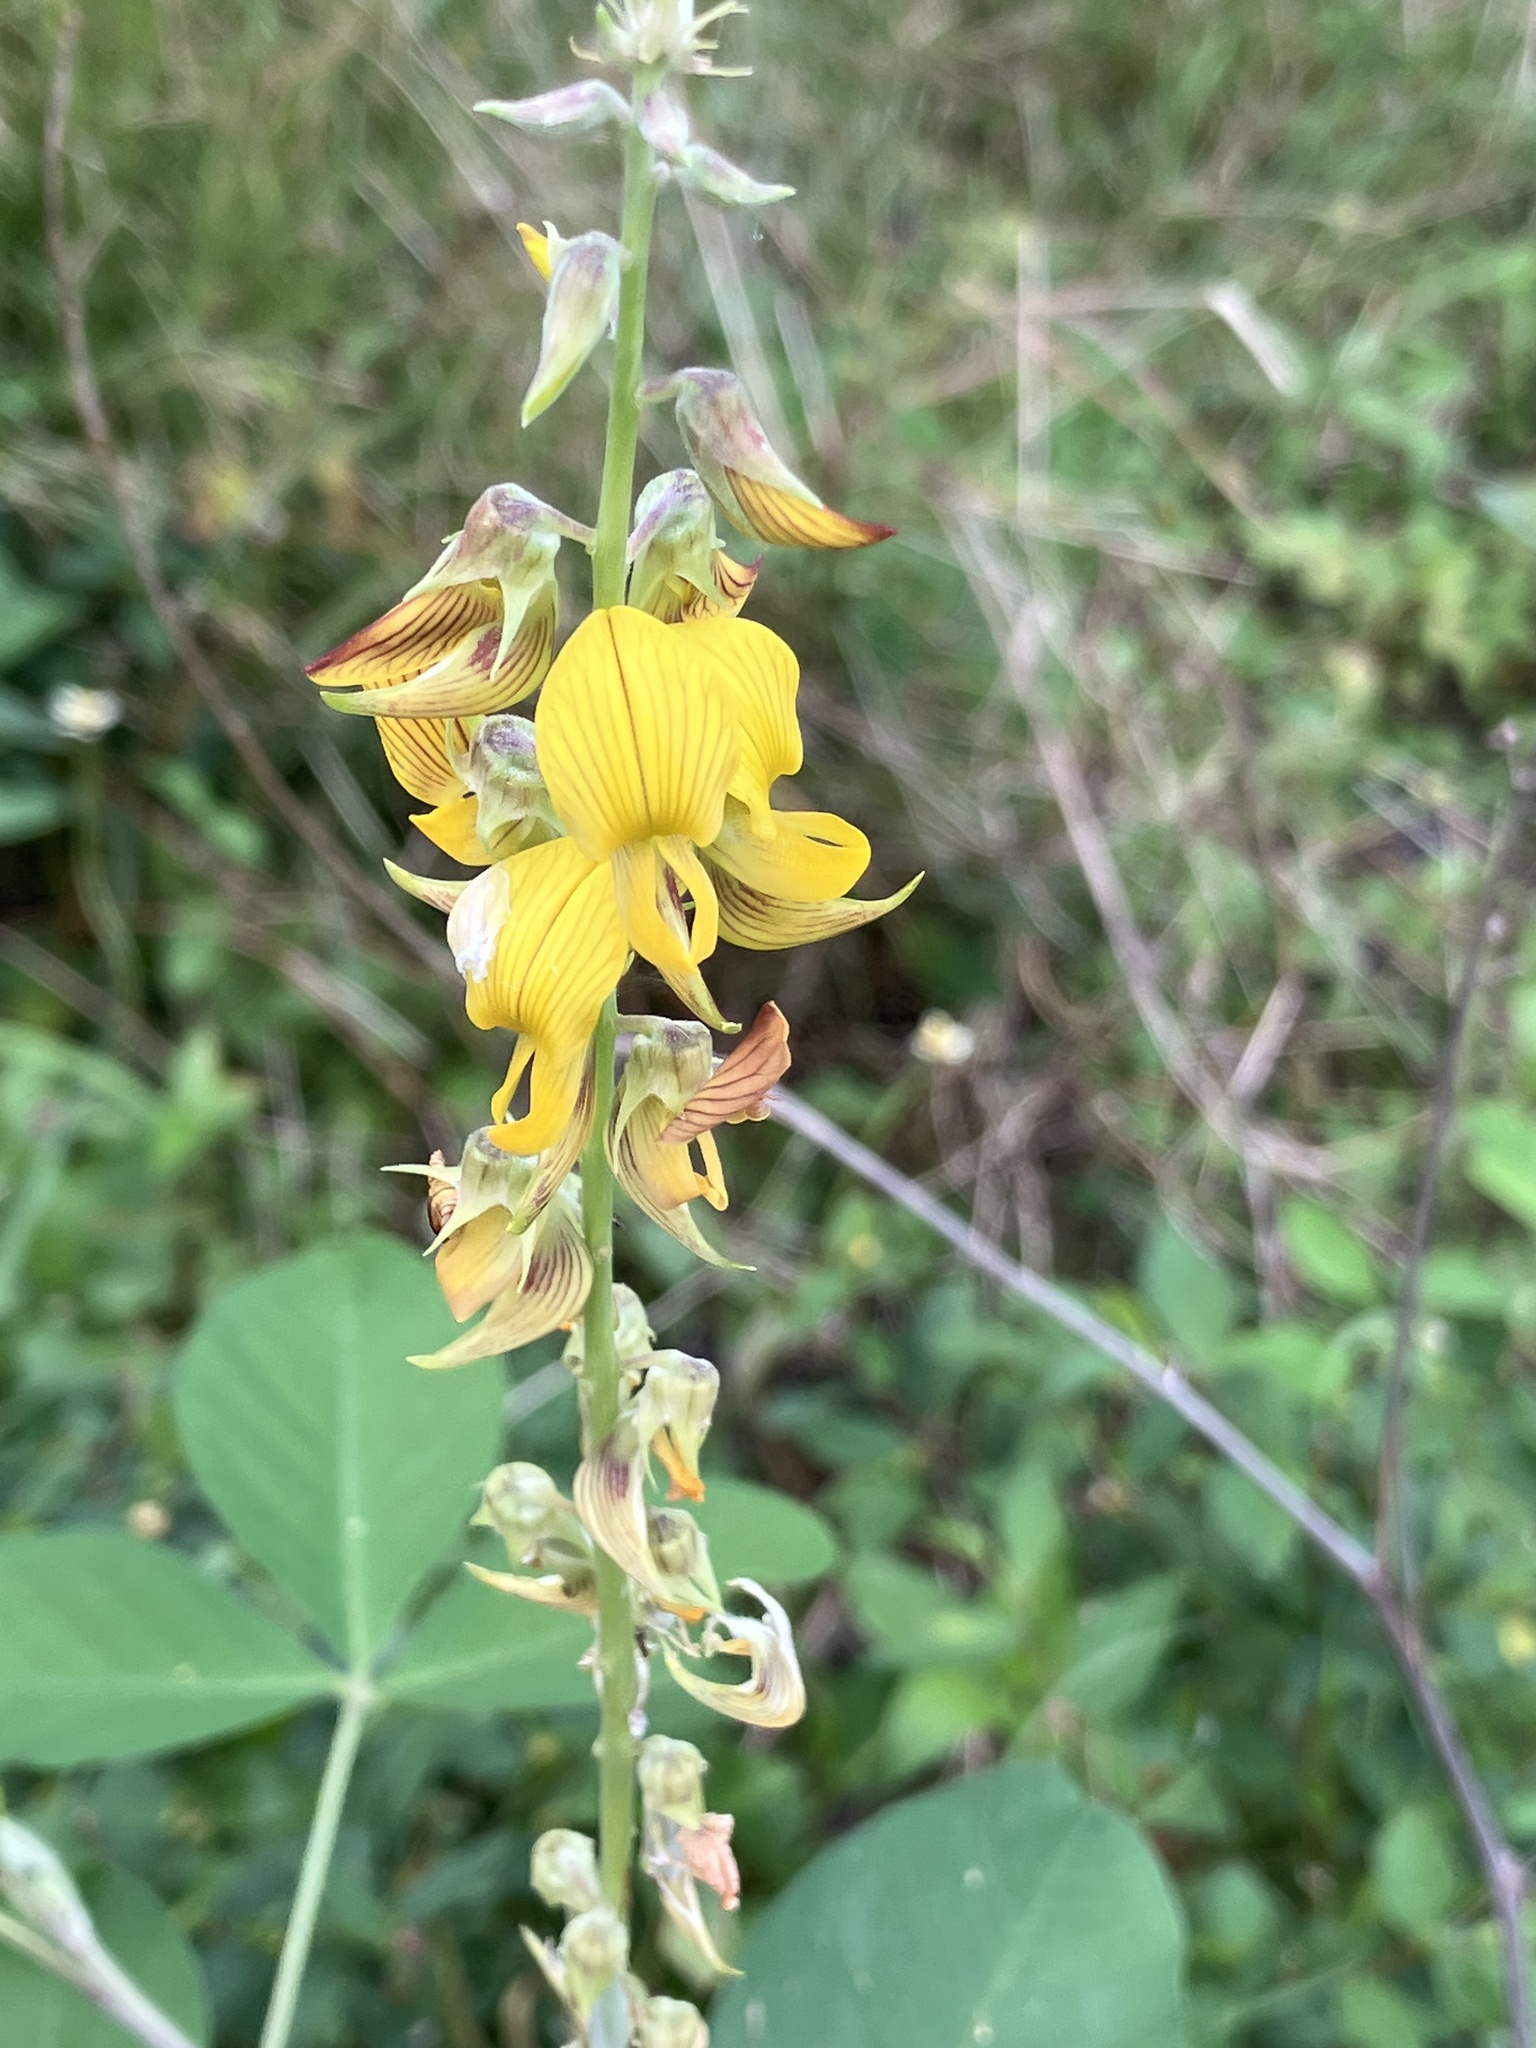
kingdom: Plantae
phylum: Tracheophyta
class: Magnoliopsida
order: Fabales
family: Fabaceae
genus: Crotalaria
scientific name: Crotalaria pallida
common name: Smooth rattlebox
